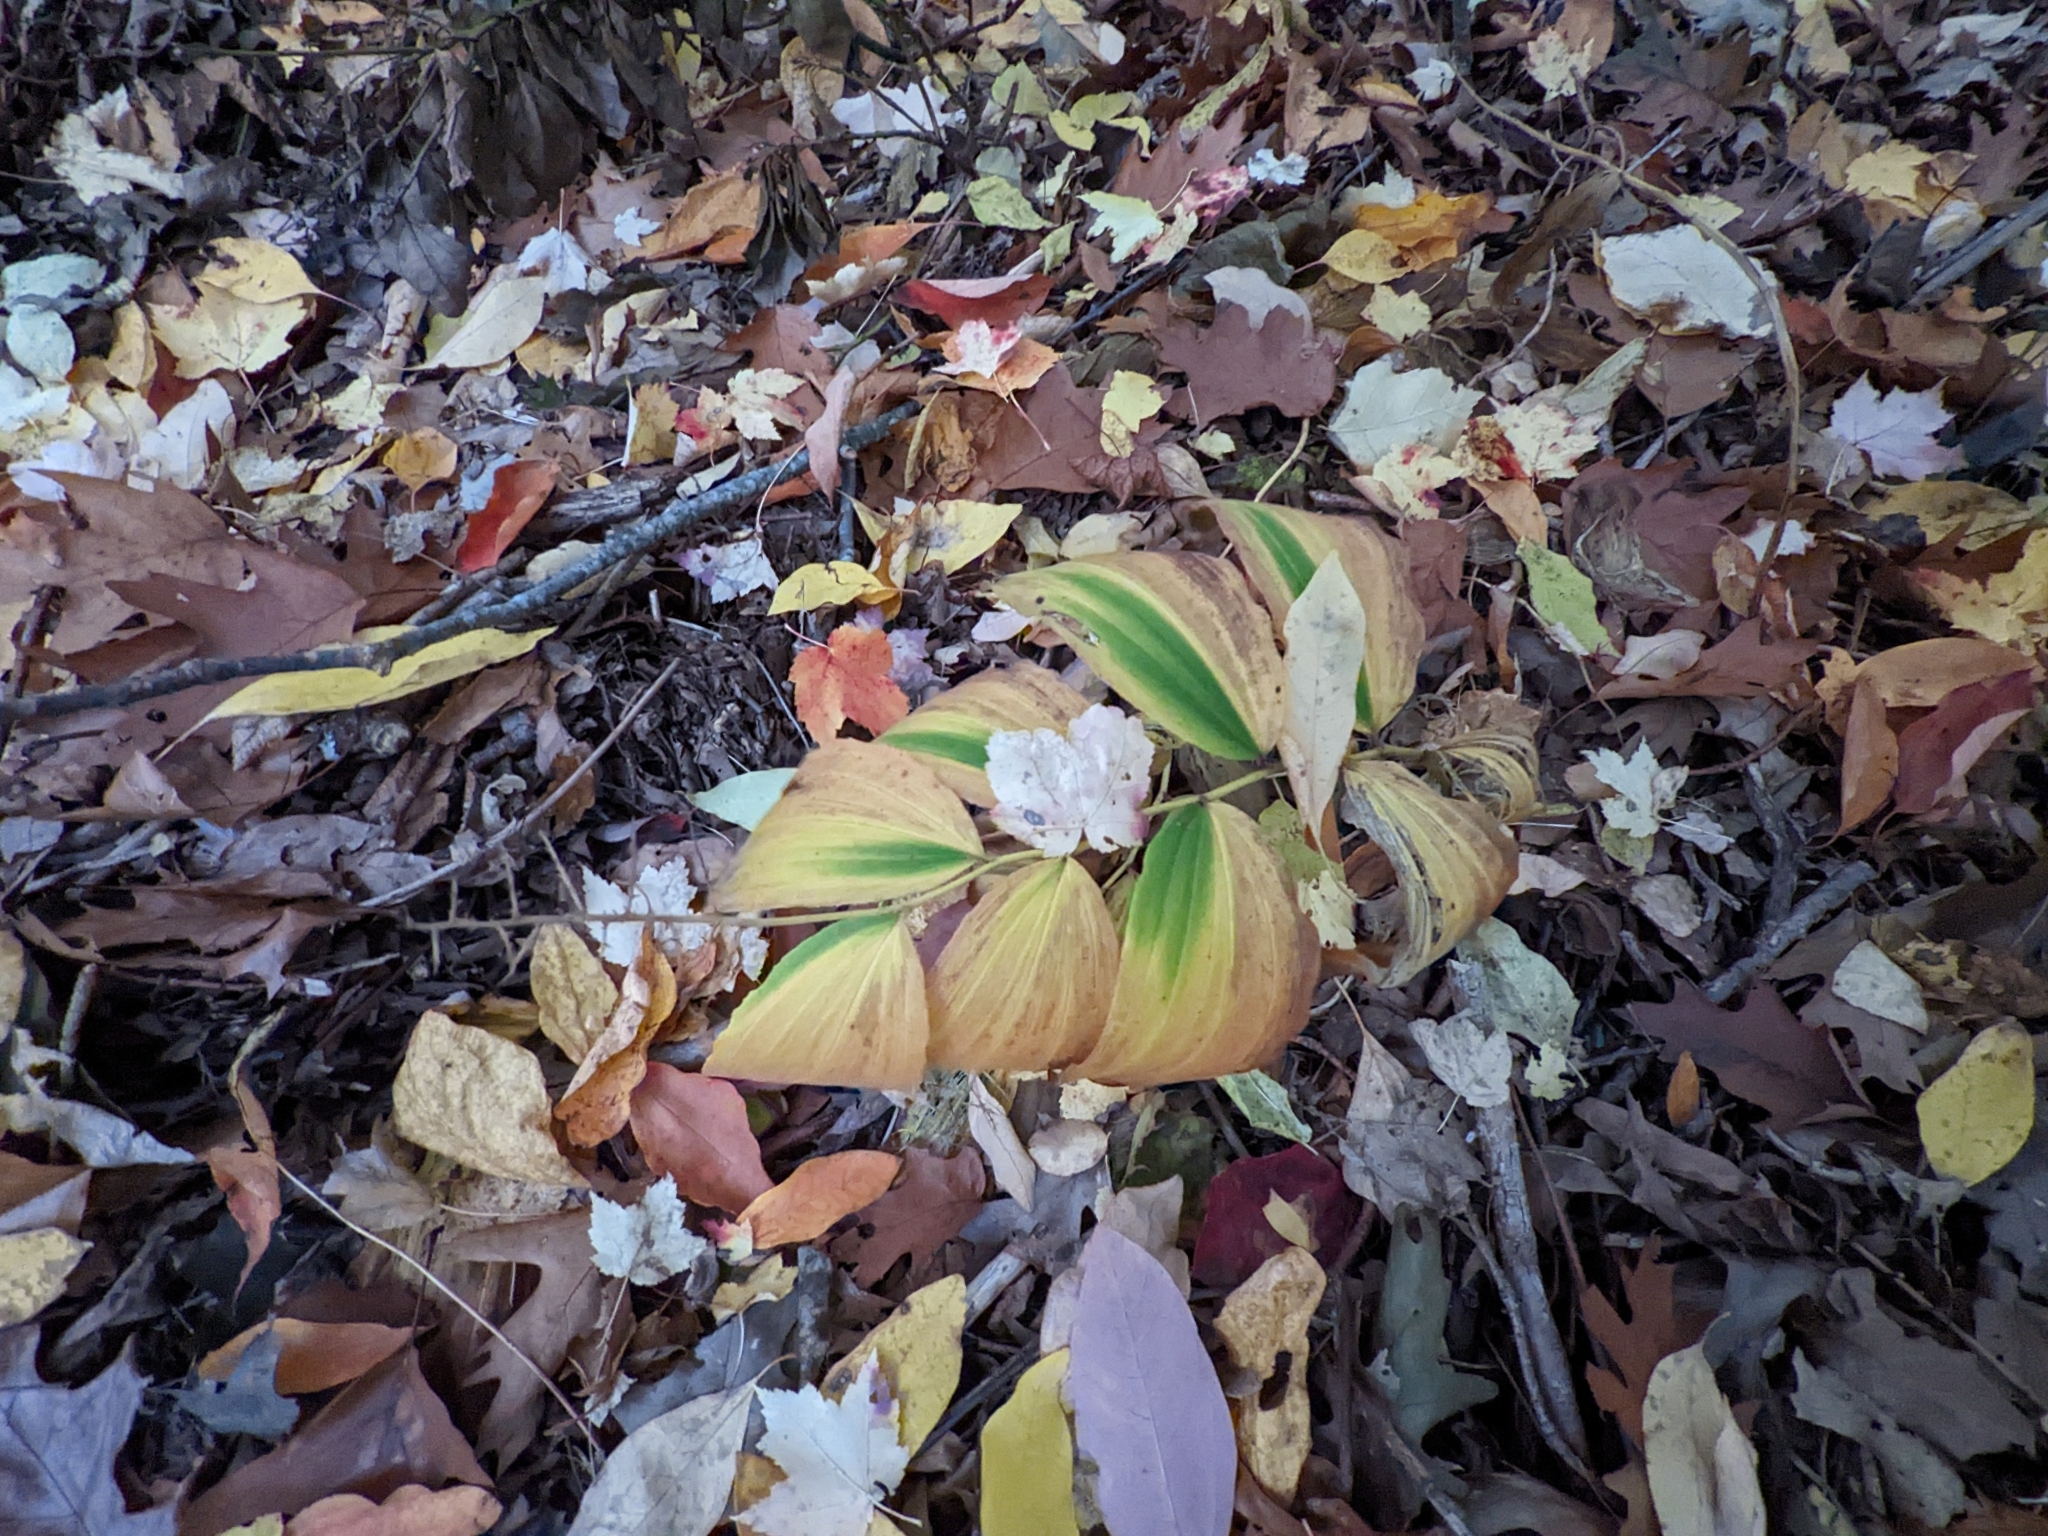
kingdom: Plantae
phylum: Tracheophyta
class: Liliopsida
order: Asparagales
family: Asparagaceae
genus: Maianthemum
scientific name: Maianthemum racemosum
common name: False spikenard
